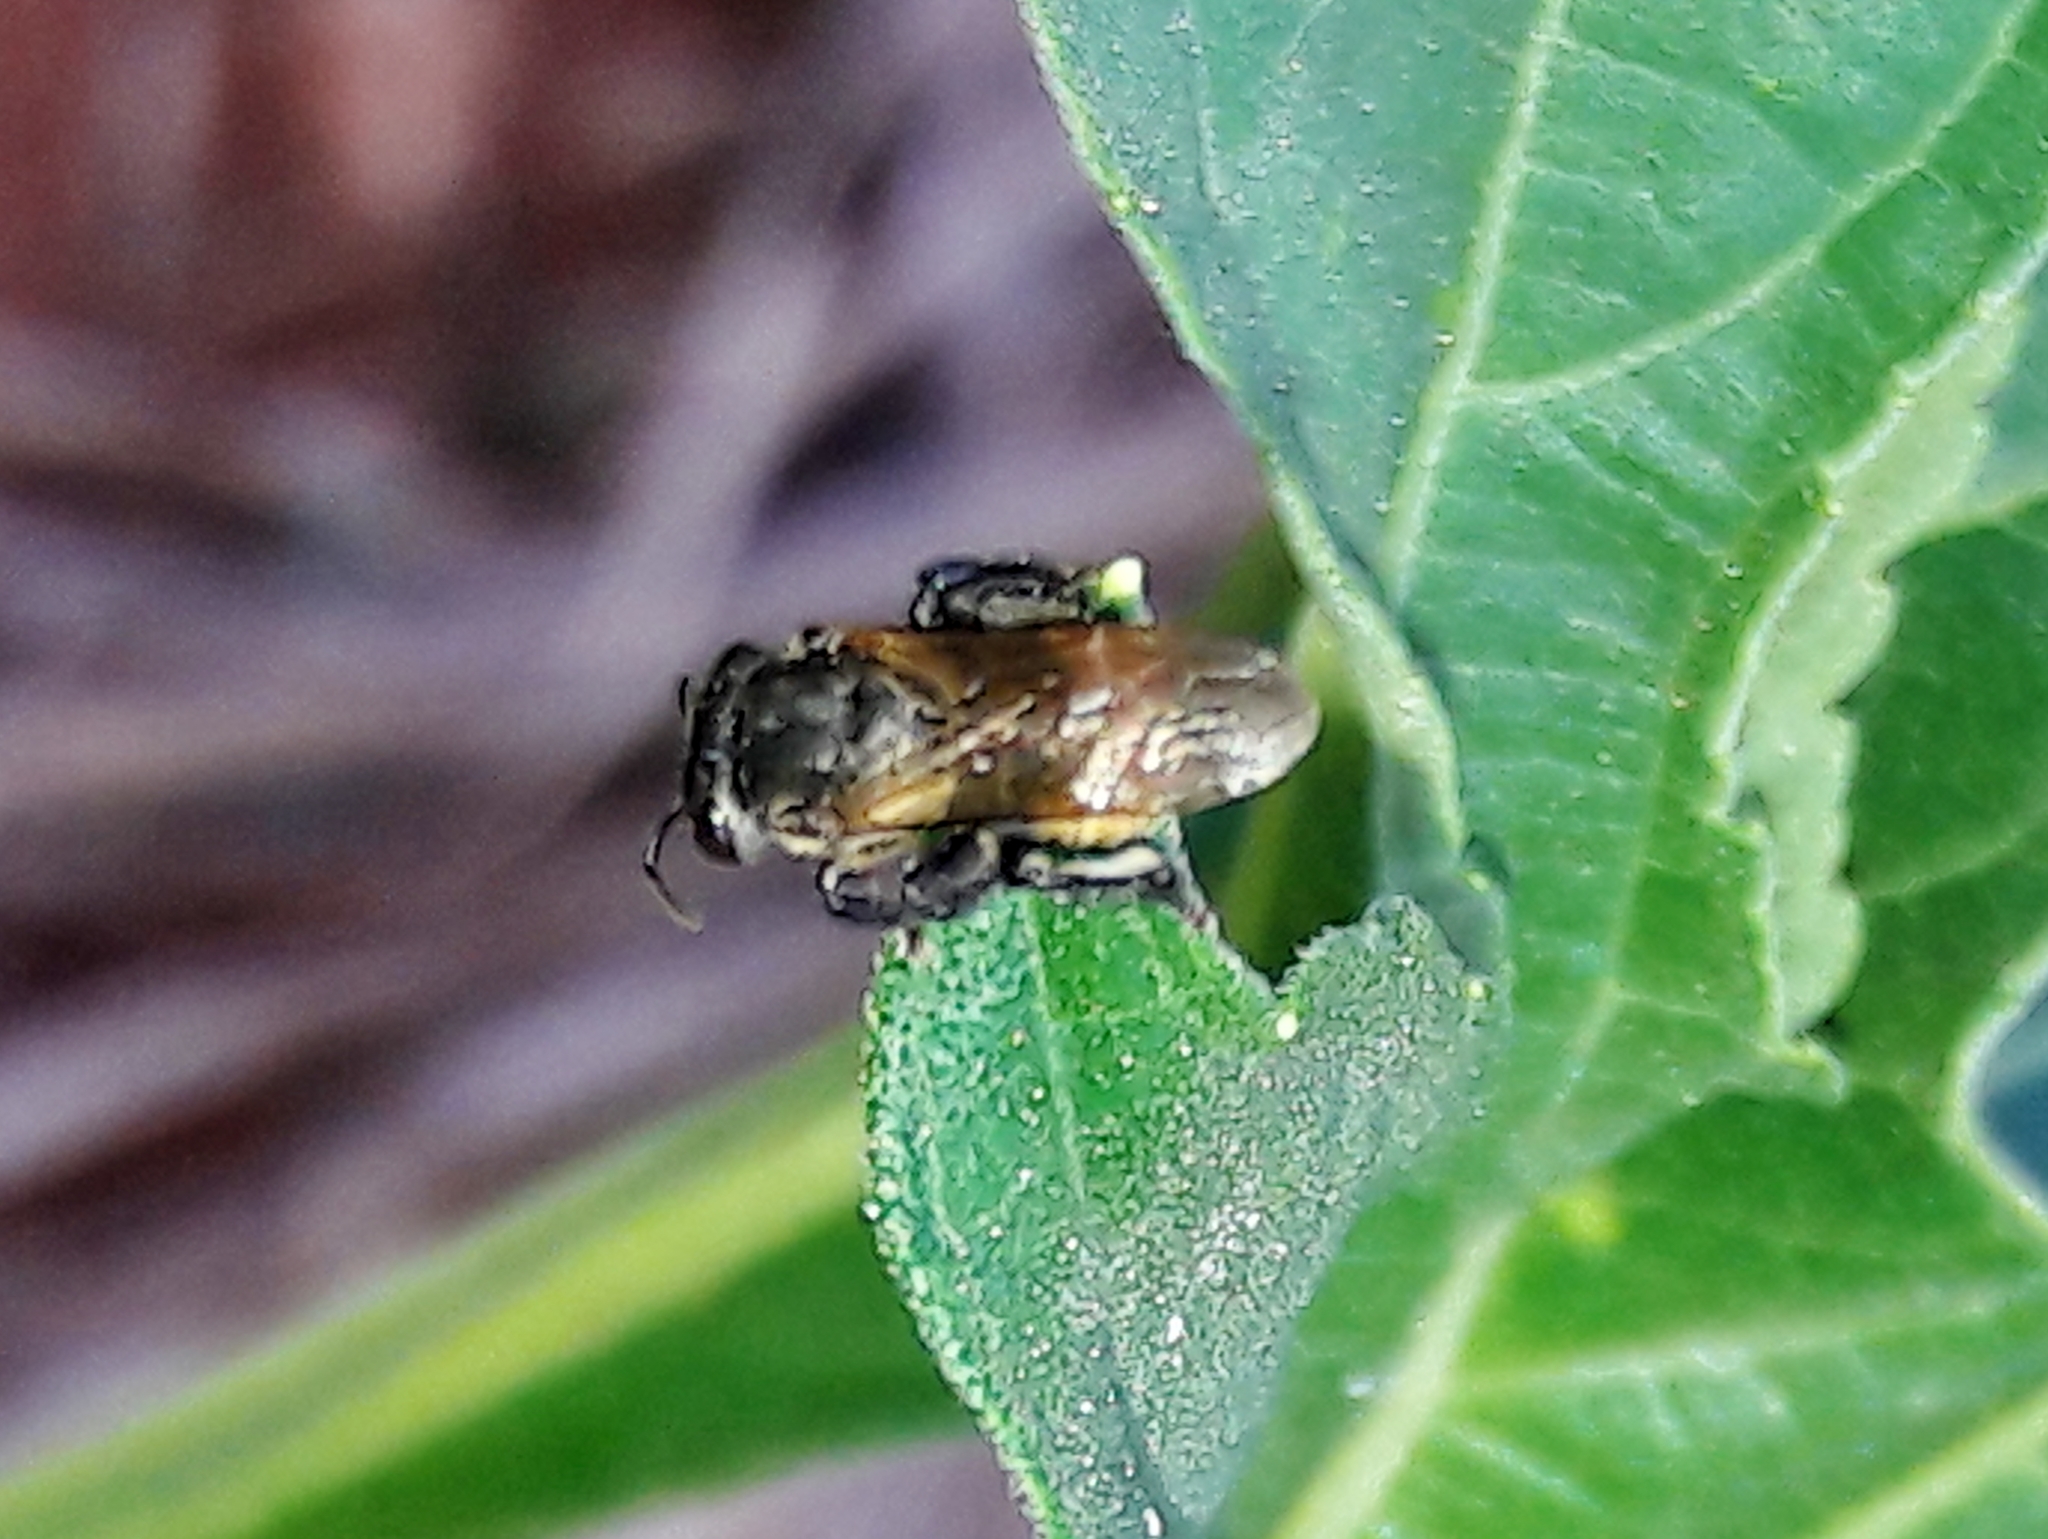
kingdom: Animalia
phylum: Arthropoda
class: Insecta
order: Hymenoptera
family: Apidae
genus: Scaptotrigona
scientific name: Scaptotrigona postica
